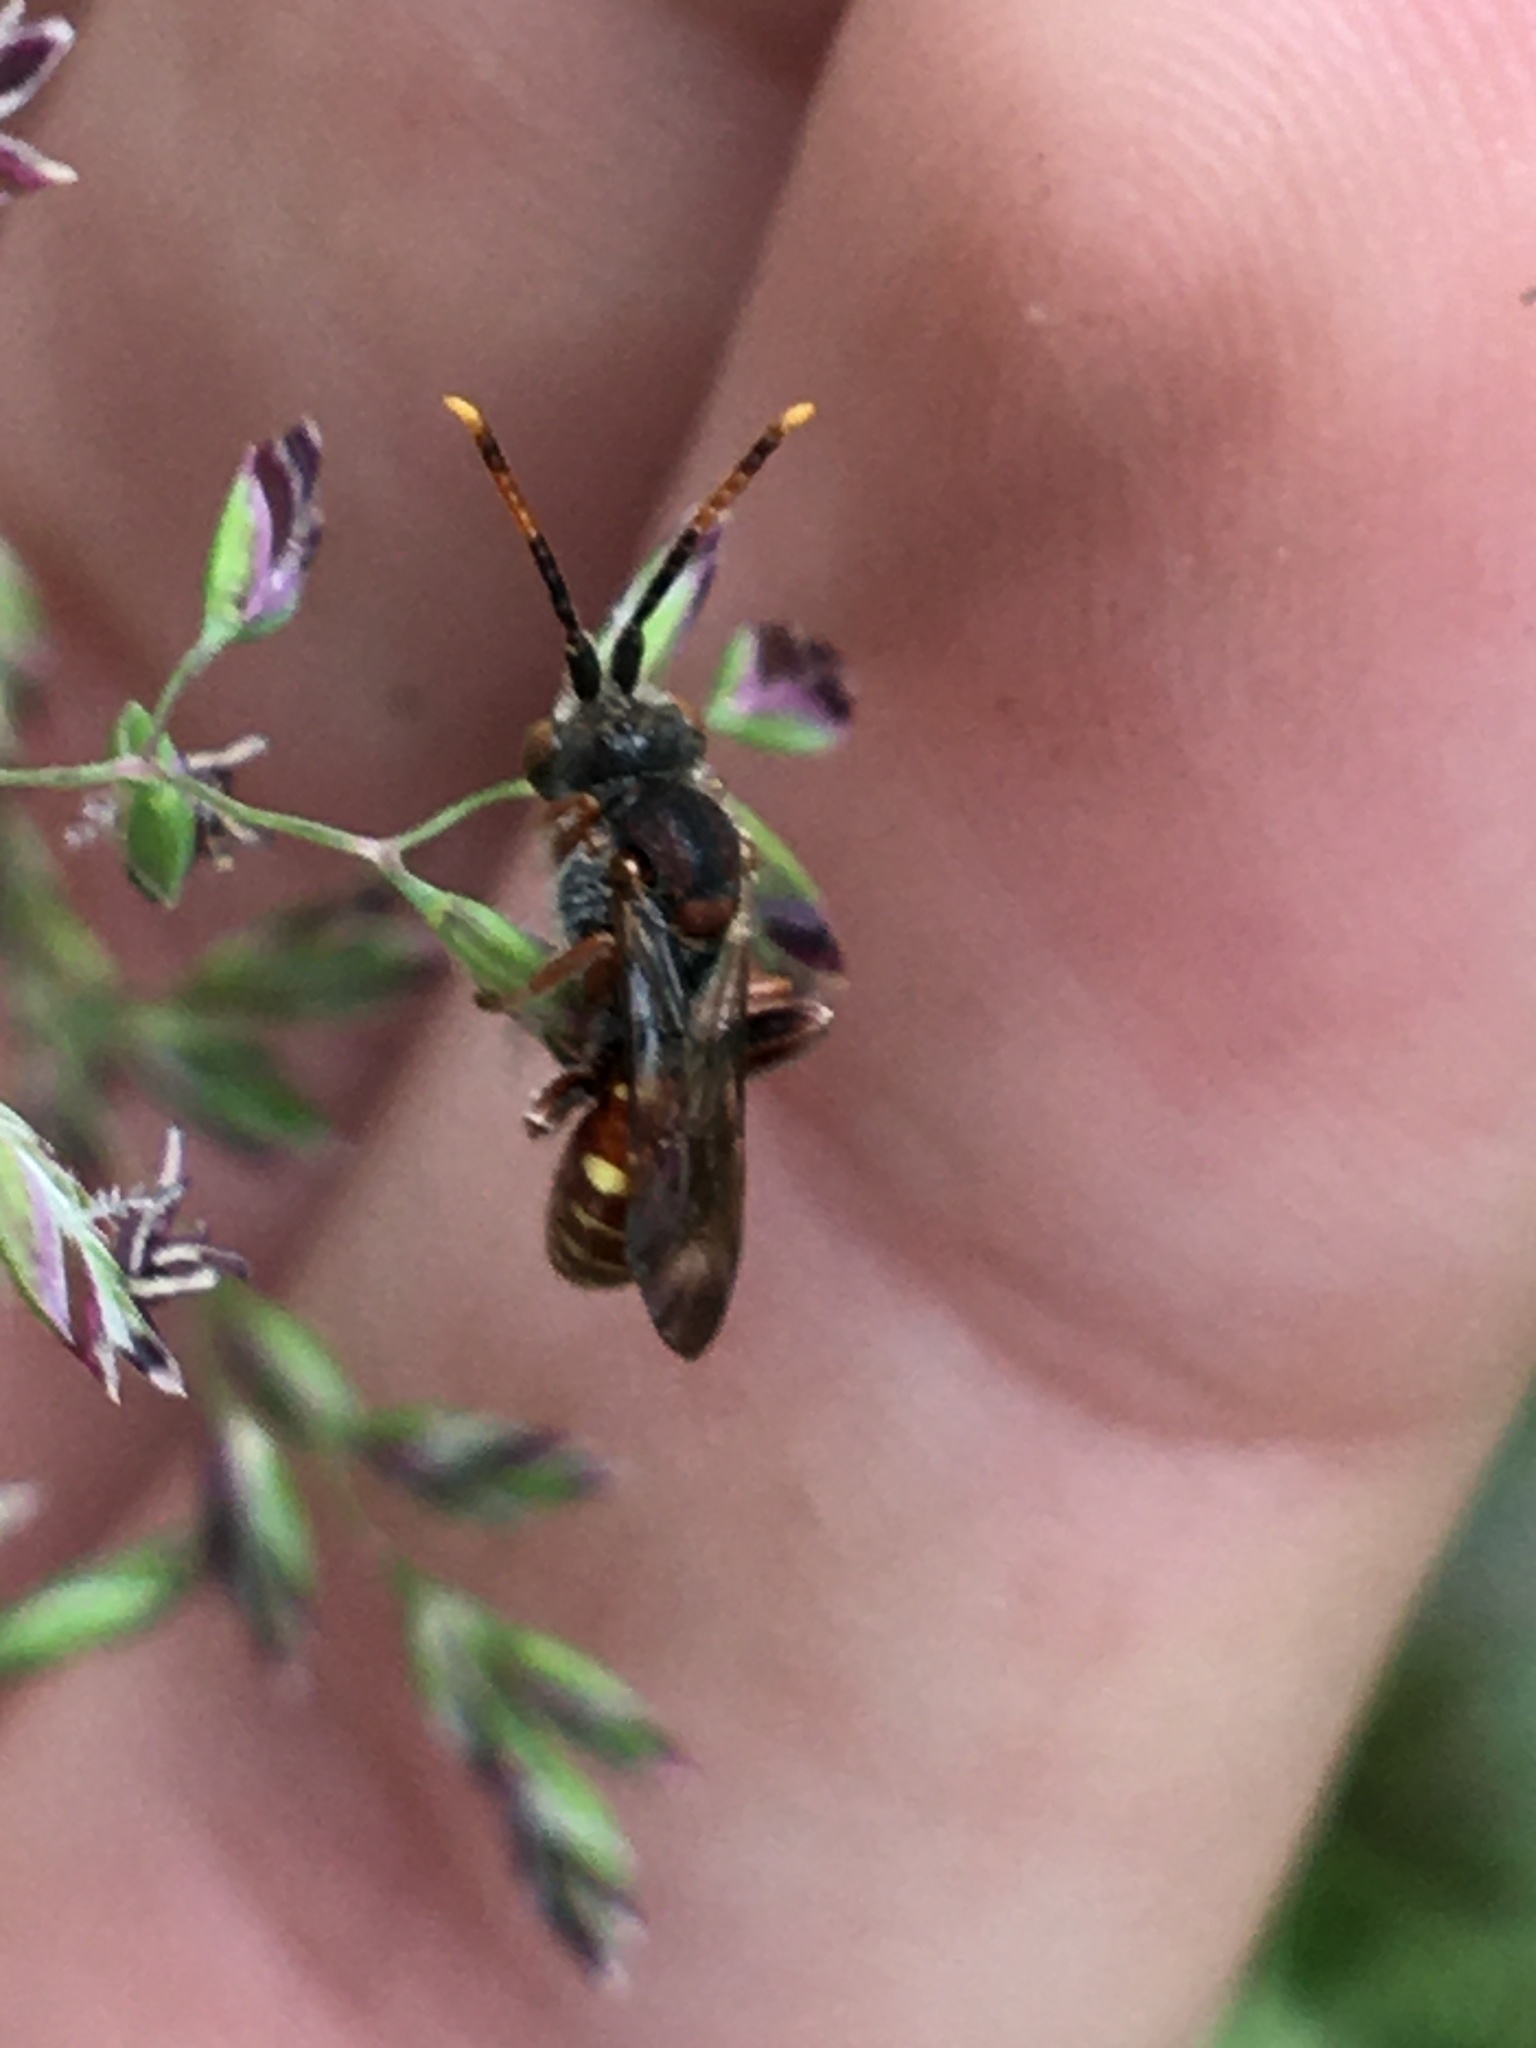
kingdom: Animalia
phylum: Arthropoda
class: Insecta
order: Hymenoptera
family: Apidae
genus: Nomada
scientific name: Nomada articulata
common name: Articulated nomad
